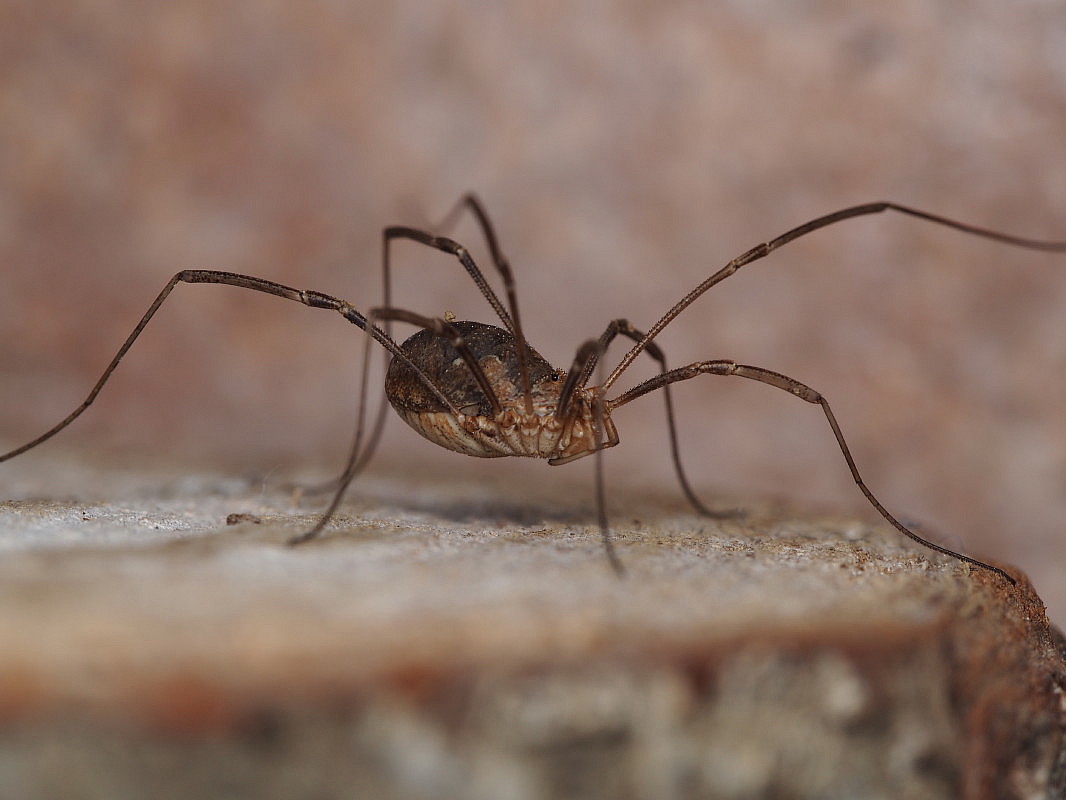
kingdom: Animalia
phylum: Arthropoda
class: Arachnida
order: Opiliones
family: Phalangiidae
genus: Phalangium
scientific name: Phalangium opilio
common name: Daddy longleg
